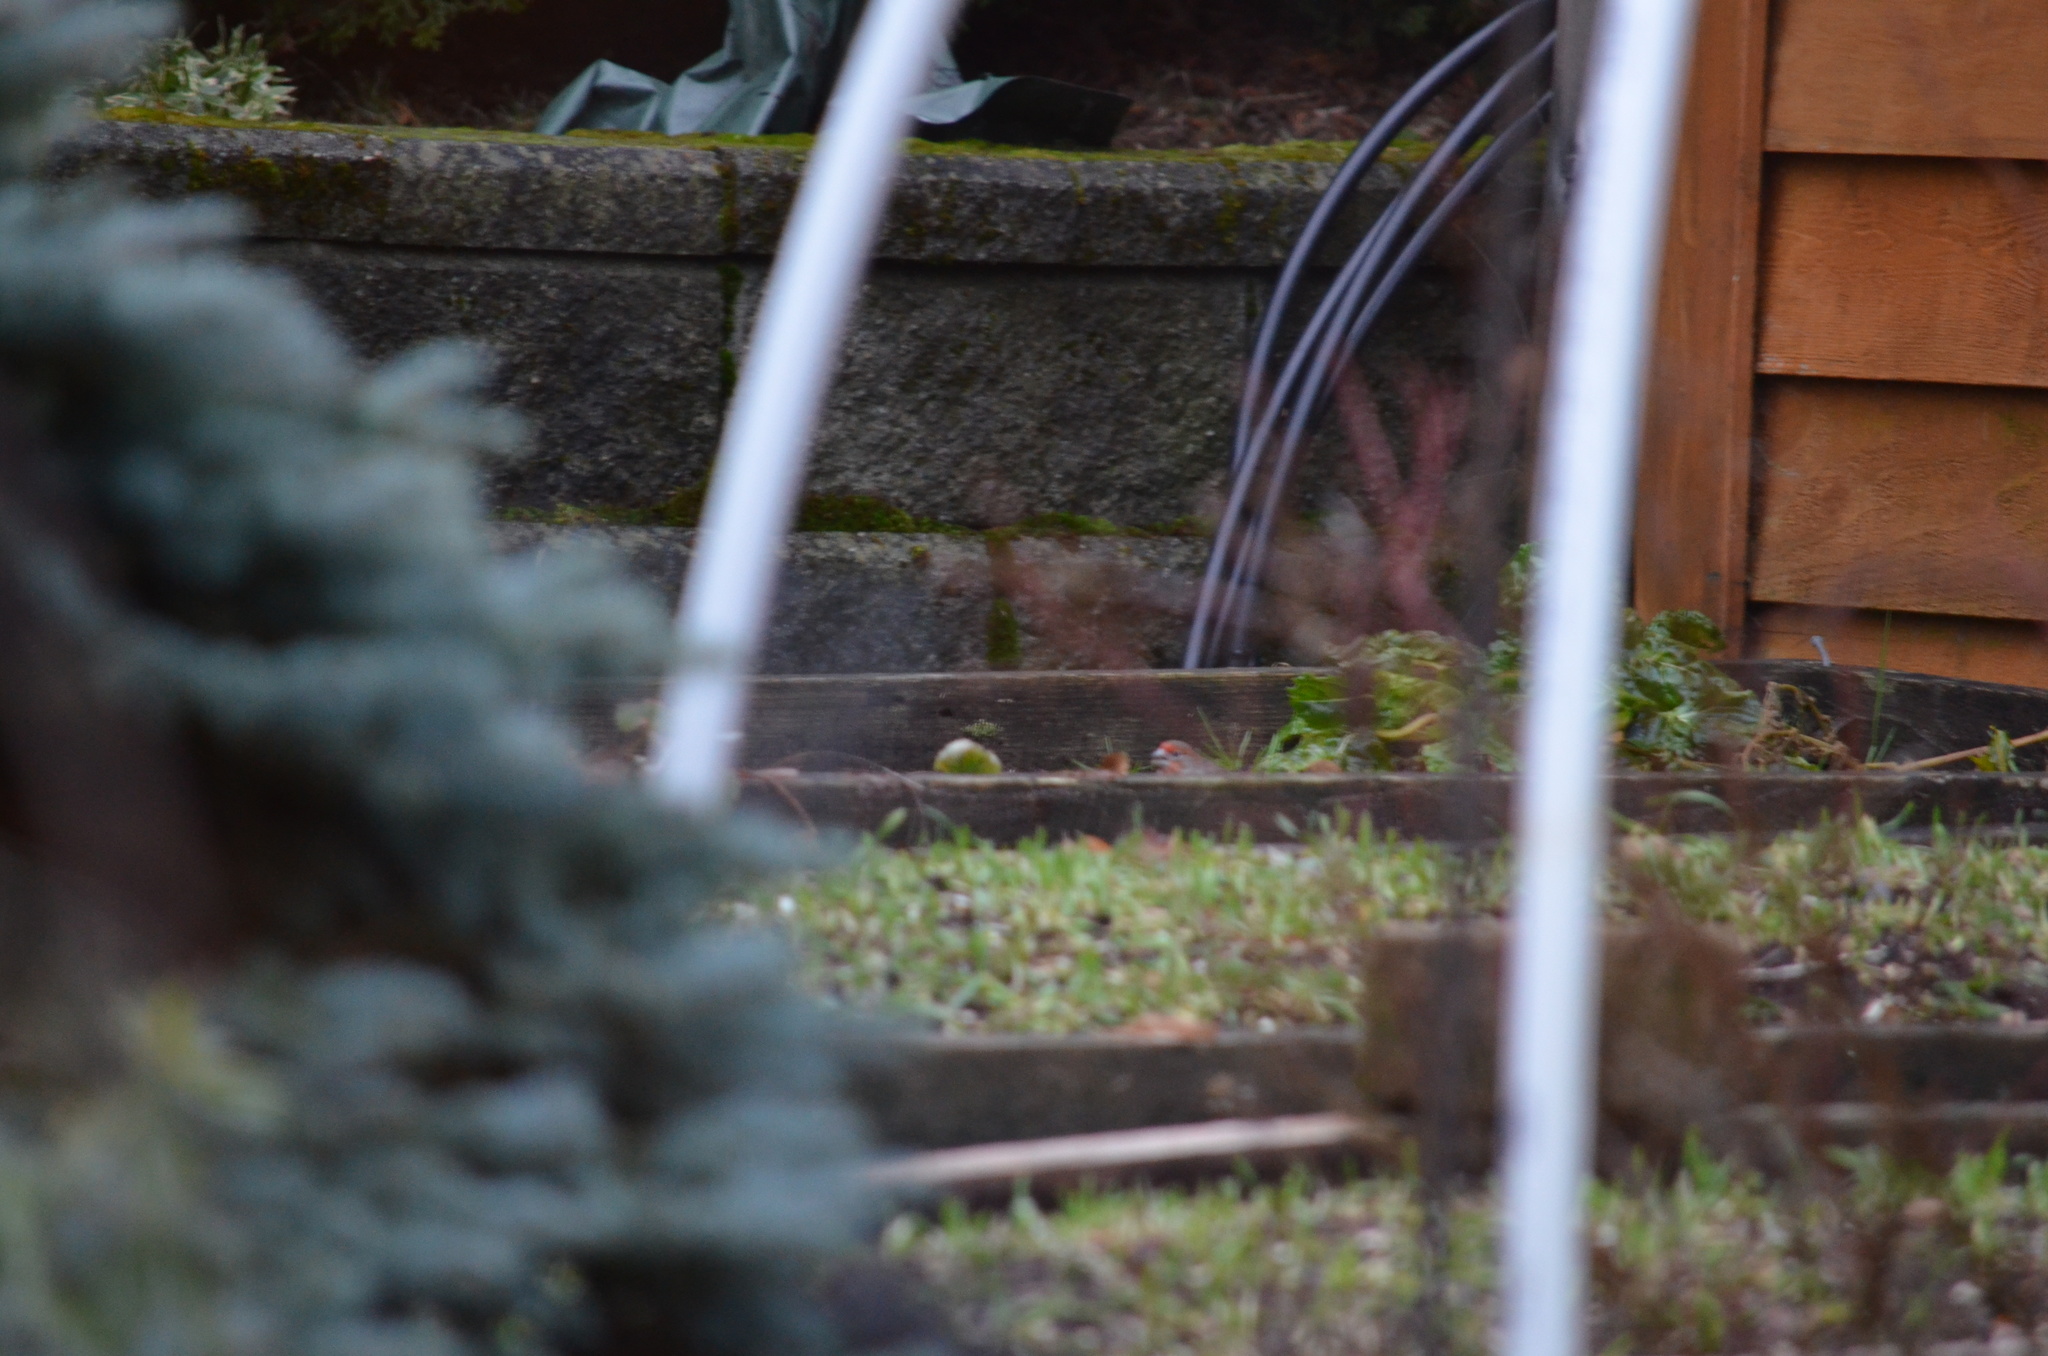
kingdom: Animalia
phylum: Chordata
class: Aves
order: Passeriformes
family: Fringillidae
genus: Haemorhous
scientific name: Haemorhous mexicanus
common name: House finch
